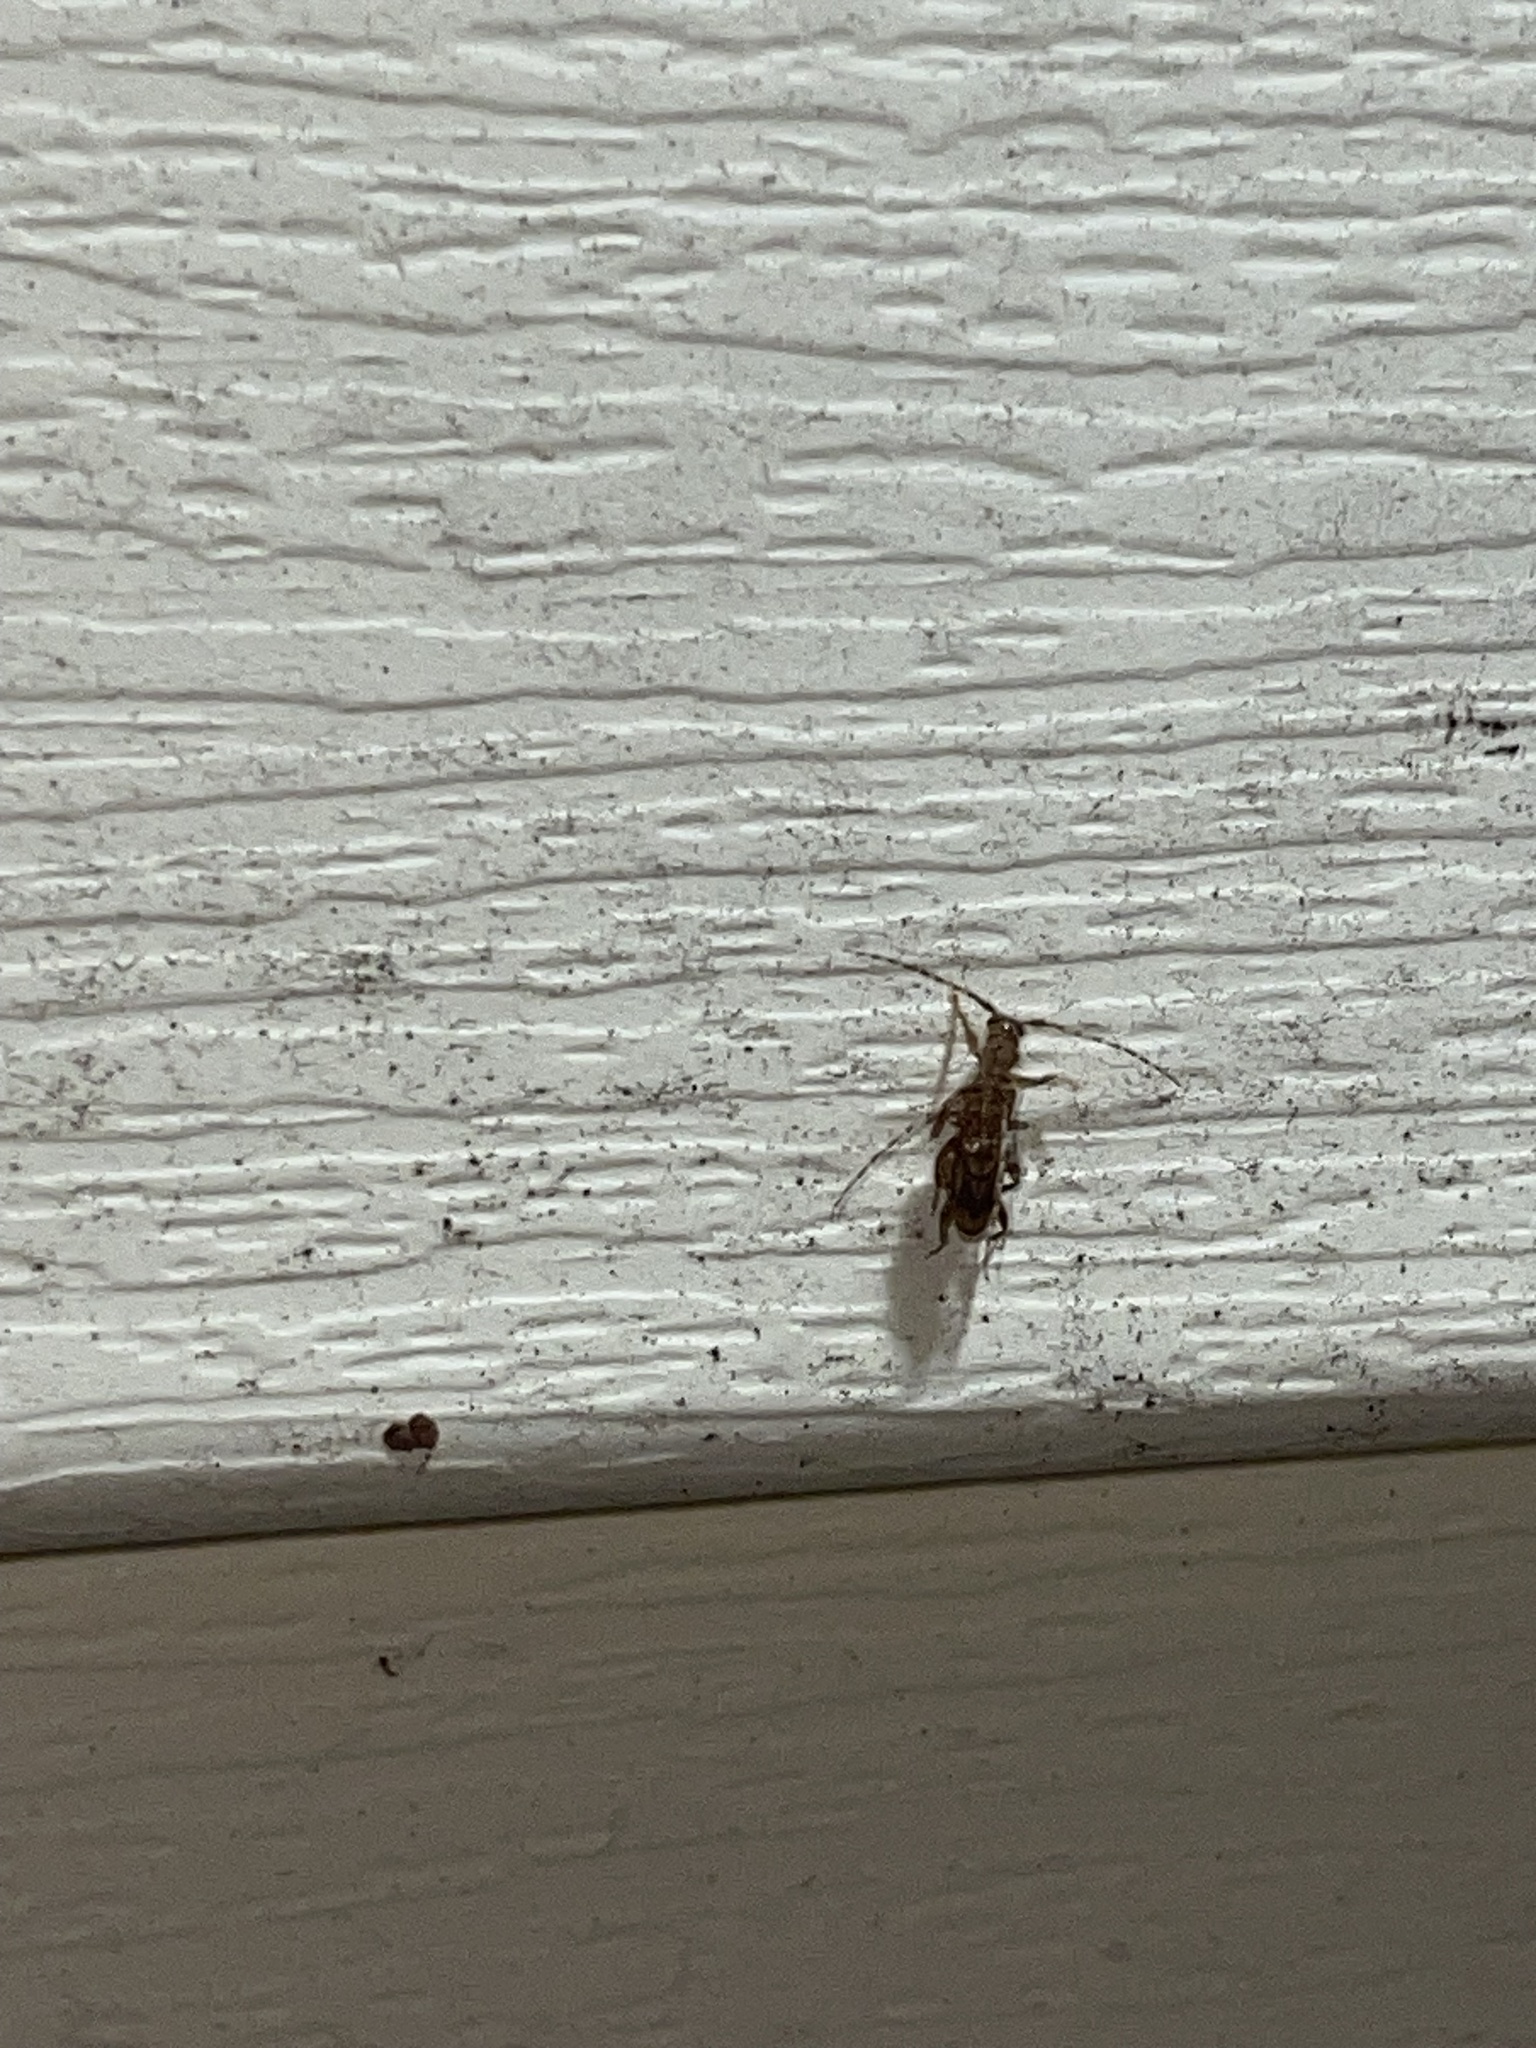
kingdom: Animalia
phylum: Arthropoda
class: Insecta
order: Coleoptera
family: Cerambycidae
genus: Obrium
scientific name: Obrium maculatum
